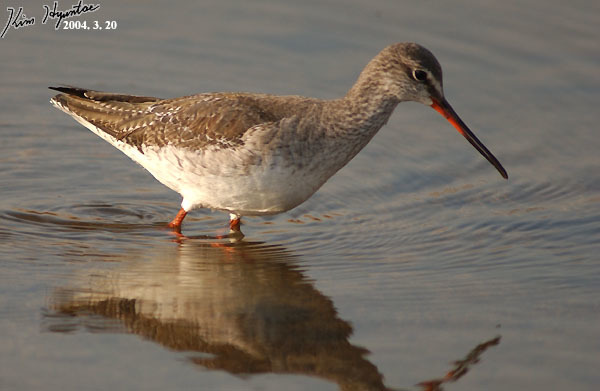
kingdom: Animalia
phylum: Chordata
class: Aves
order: Charadriiformes
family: Scolopacidae
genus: Tringa
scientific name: Tringa erythropus
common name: Spotted redshank
